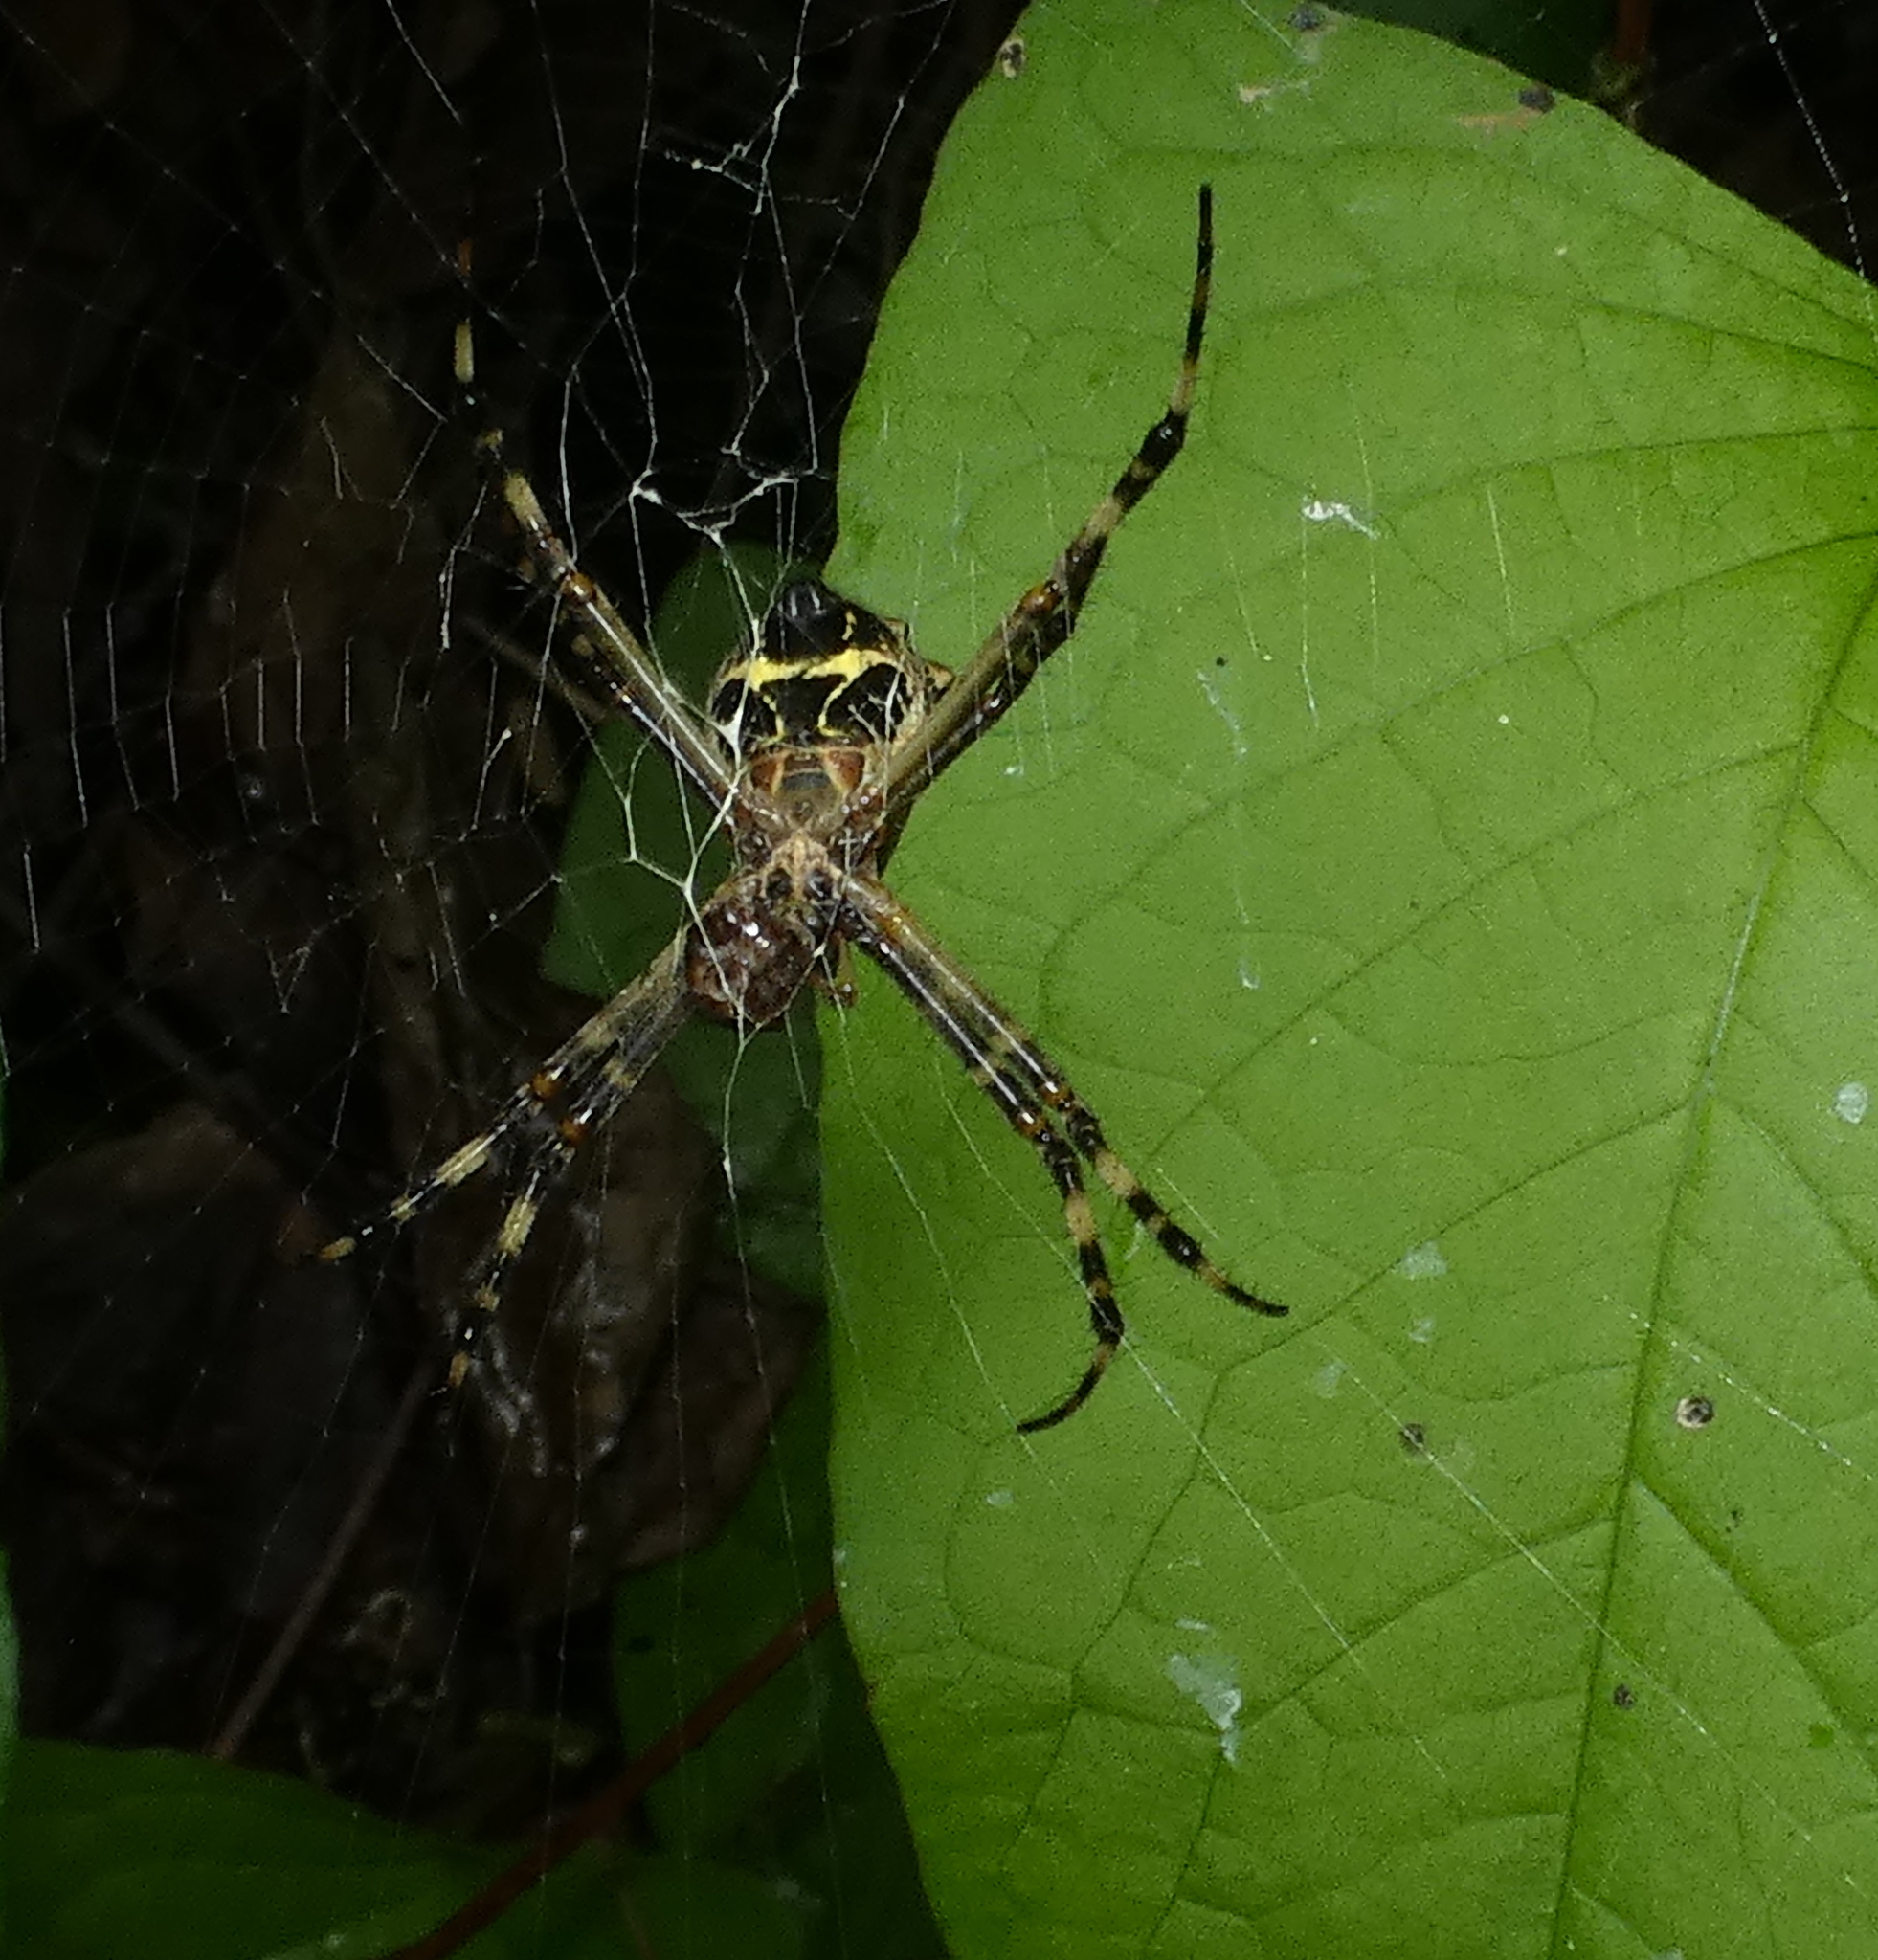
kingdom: Animalia
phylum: Arthropoda
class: Arachnida
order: Araneae
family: Araneidae
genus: Argiope
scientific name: Argiope argentata
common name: Orb weavers
